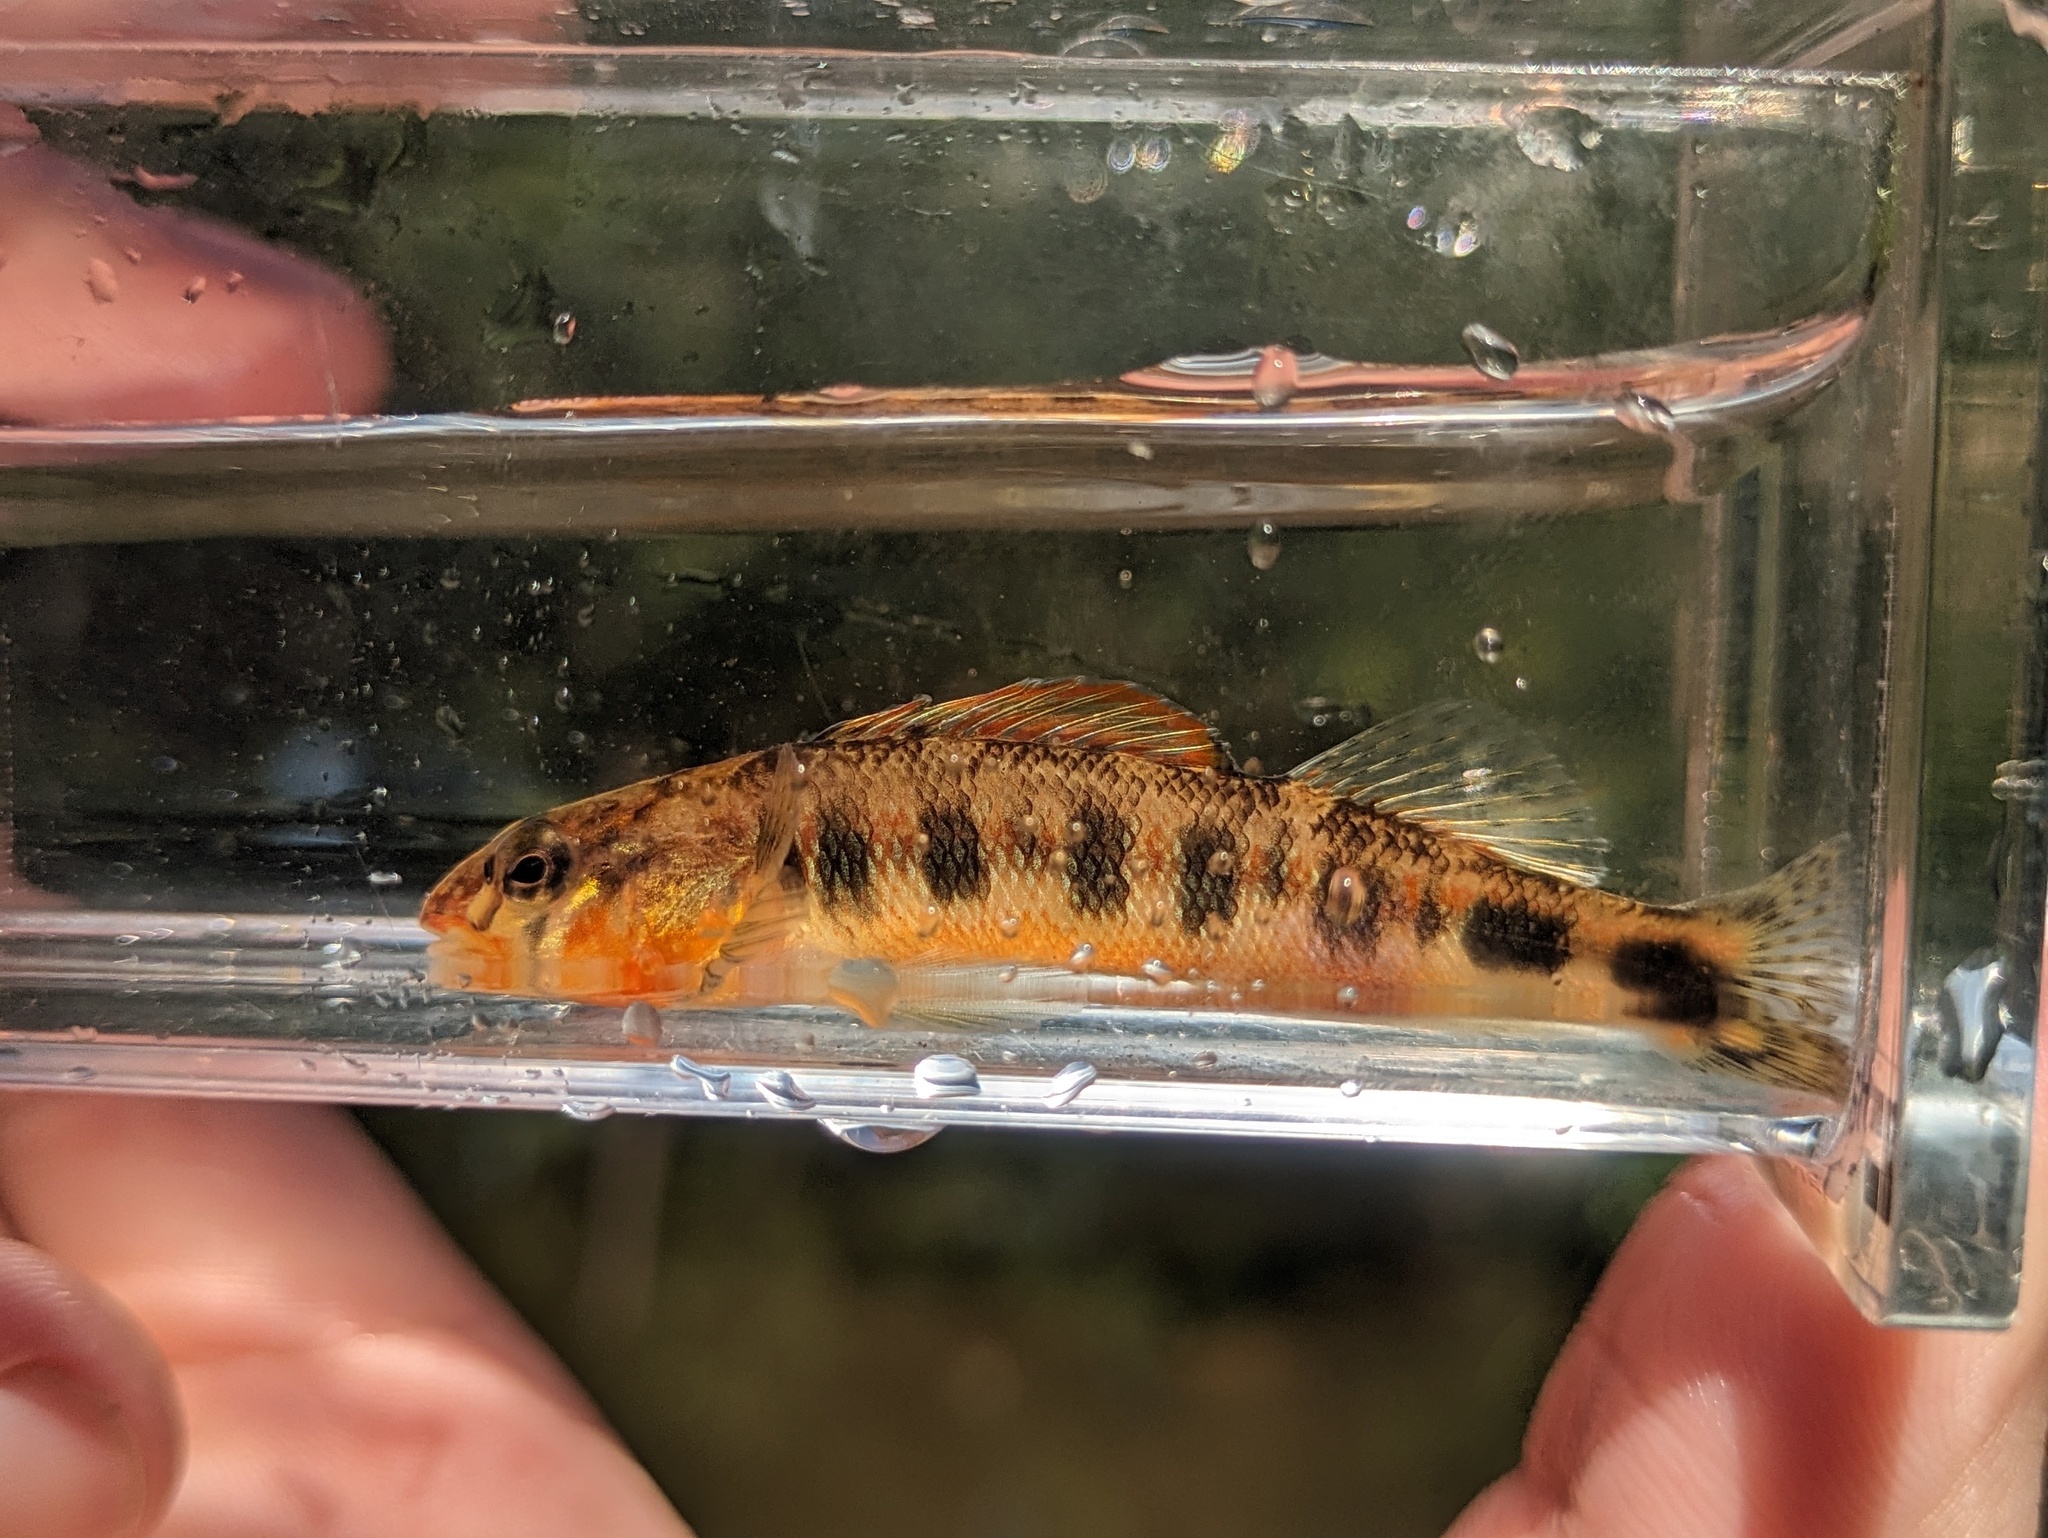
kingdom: Animalia
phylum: Chordata
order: Perciformes
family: Percidae
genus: Percina
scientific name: Percina evides
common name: Gilt darter
